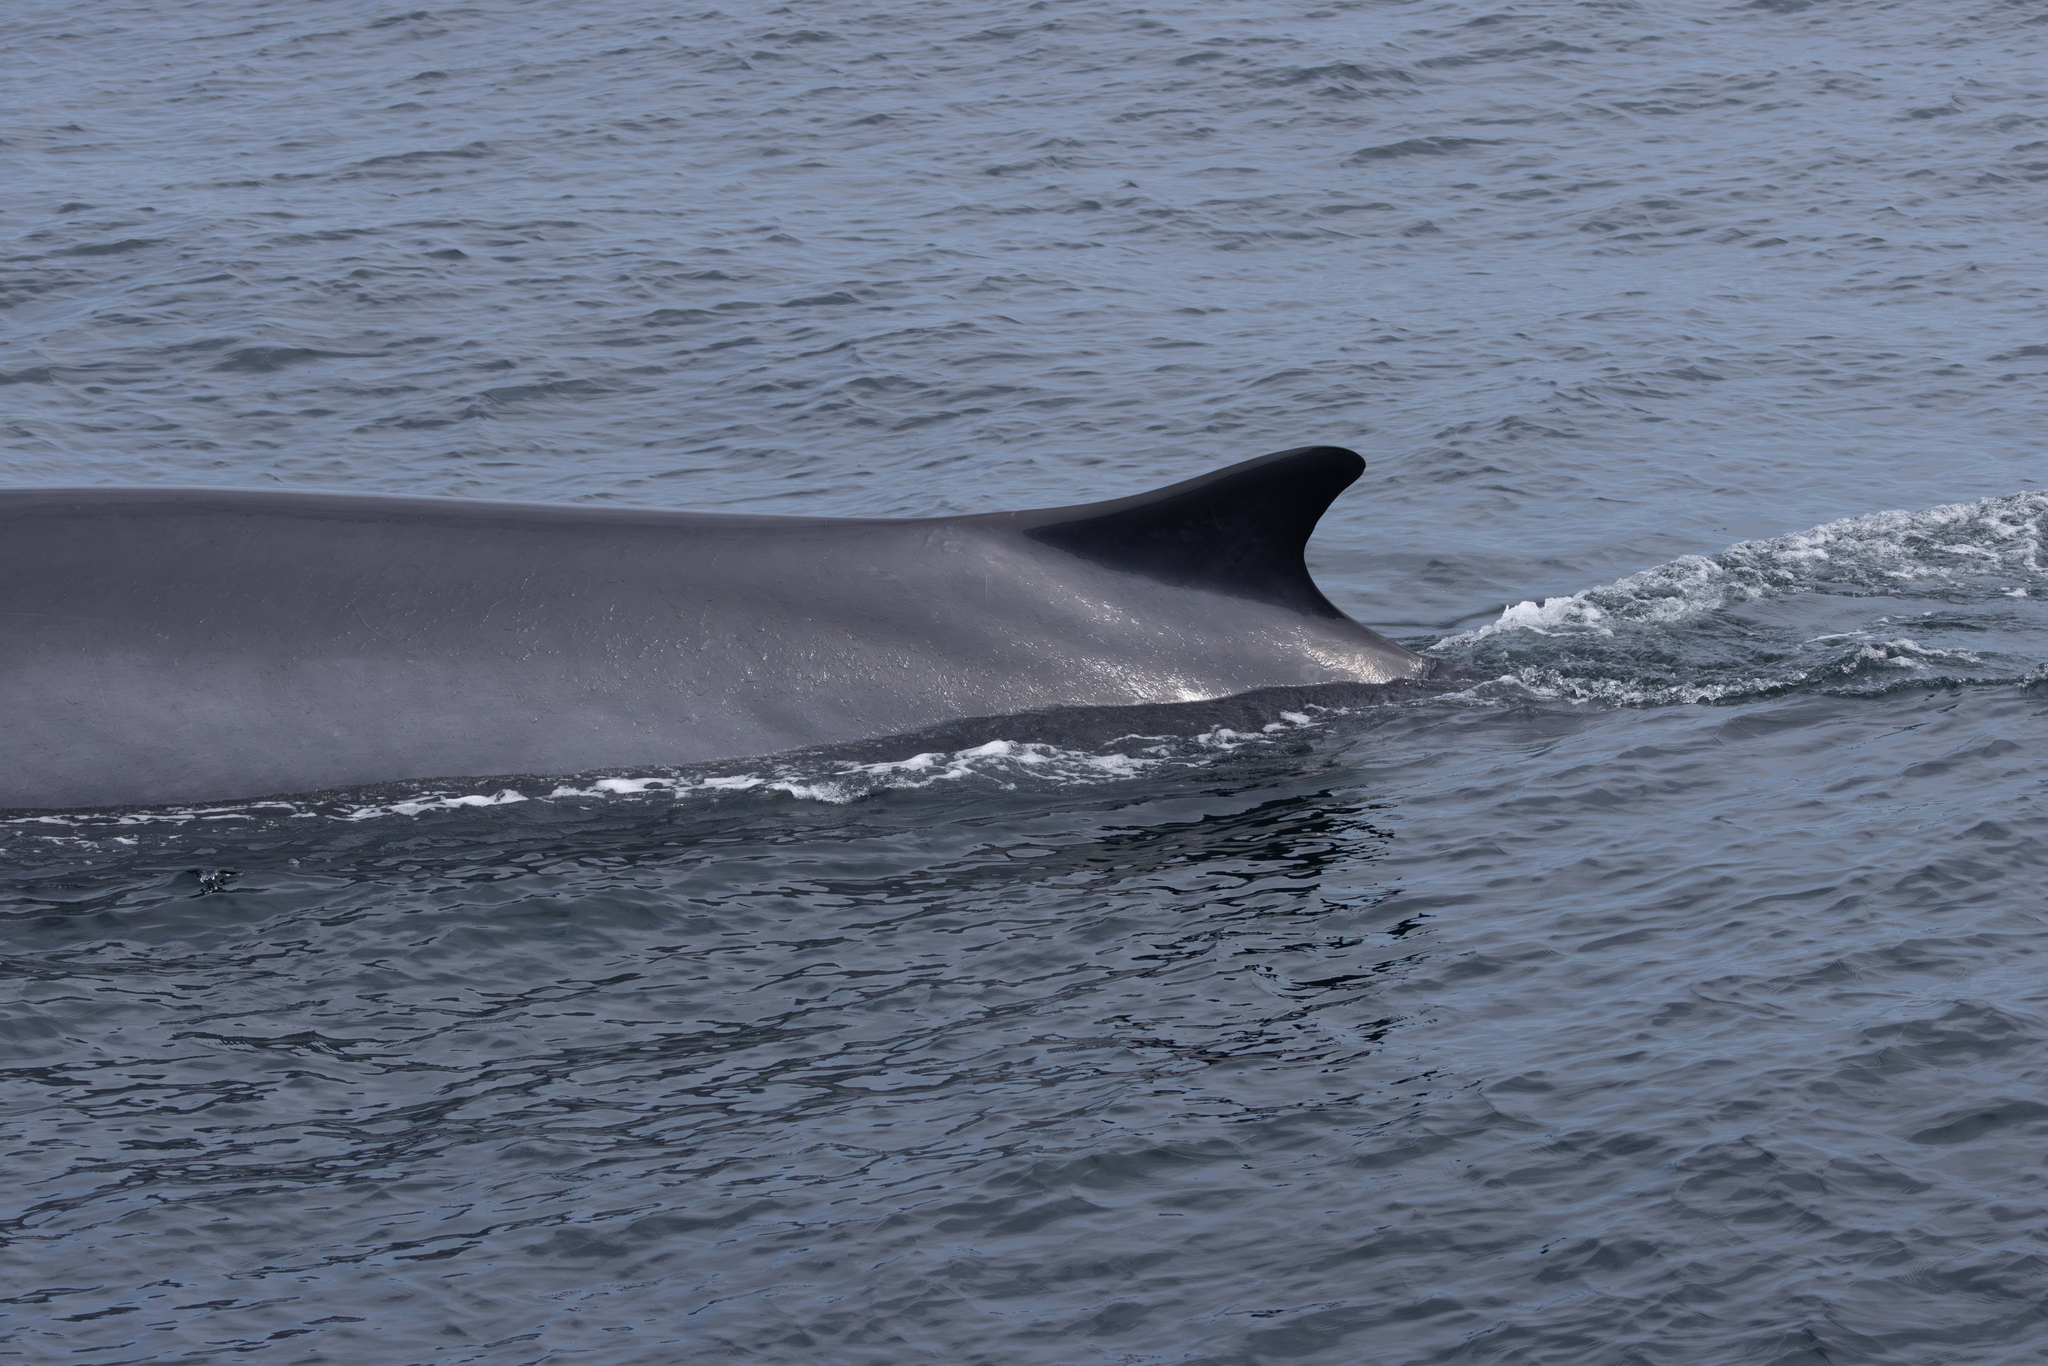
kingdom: Animalia
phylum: Chordata
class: Mammalia
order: Cetacea
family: Balaenopteridae
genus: Balaenoptera
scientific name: Balaenoptera physalus
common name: Fin whale
